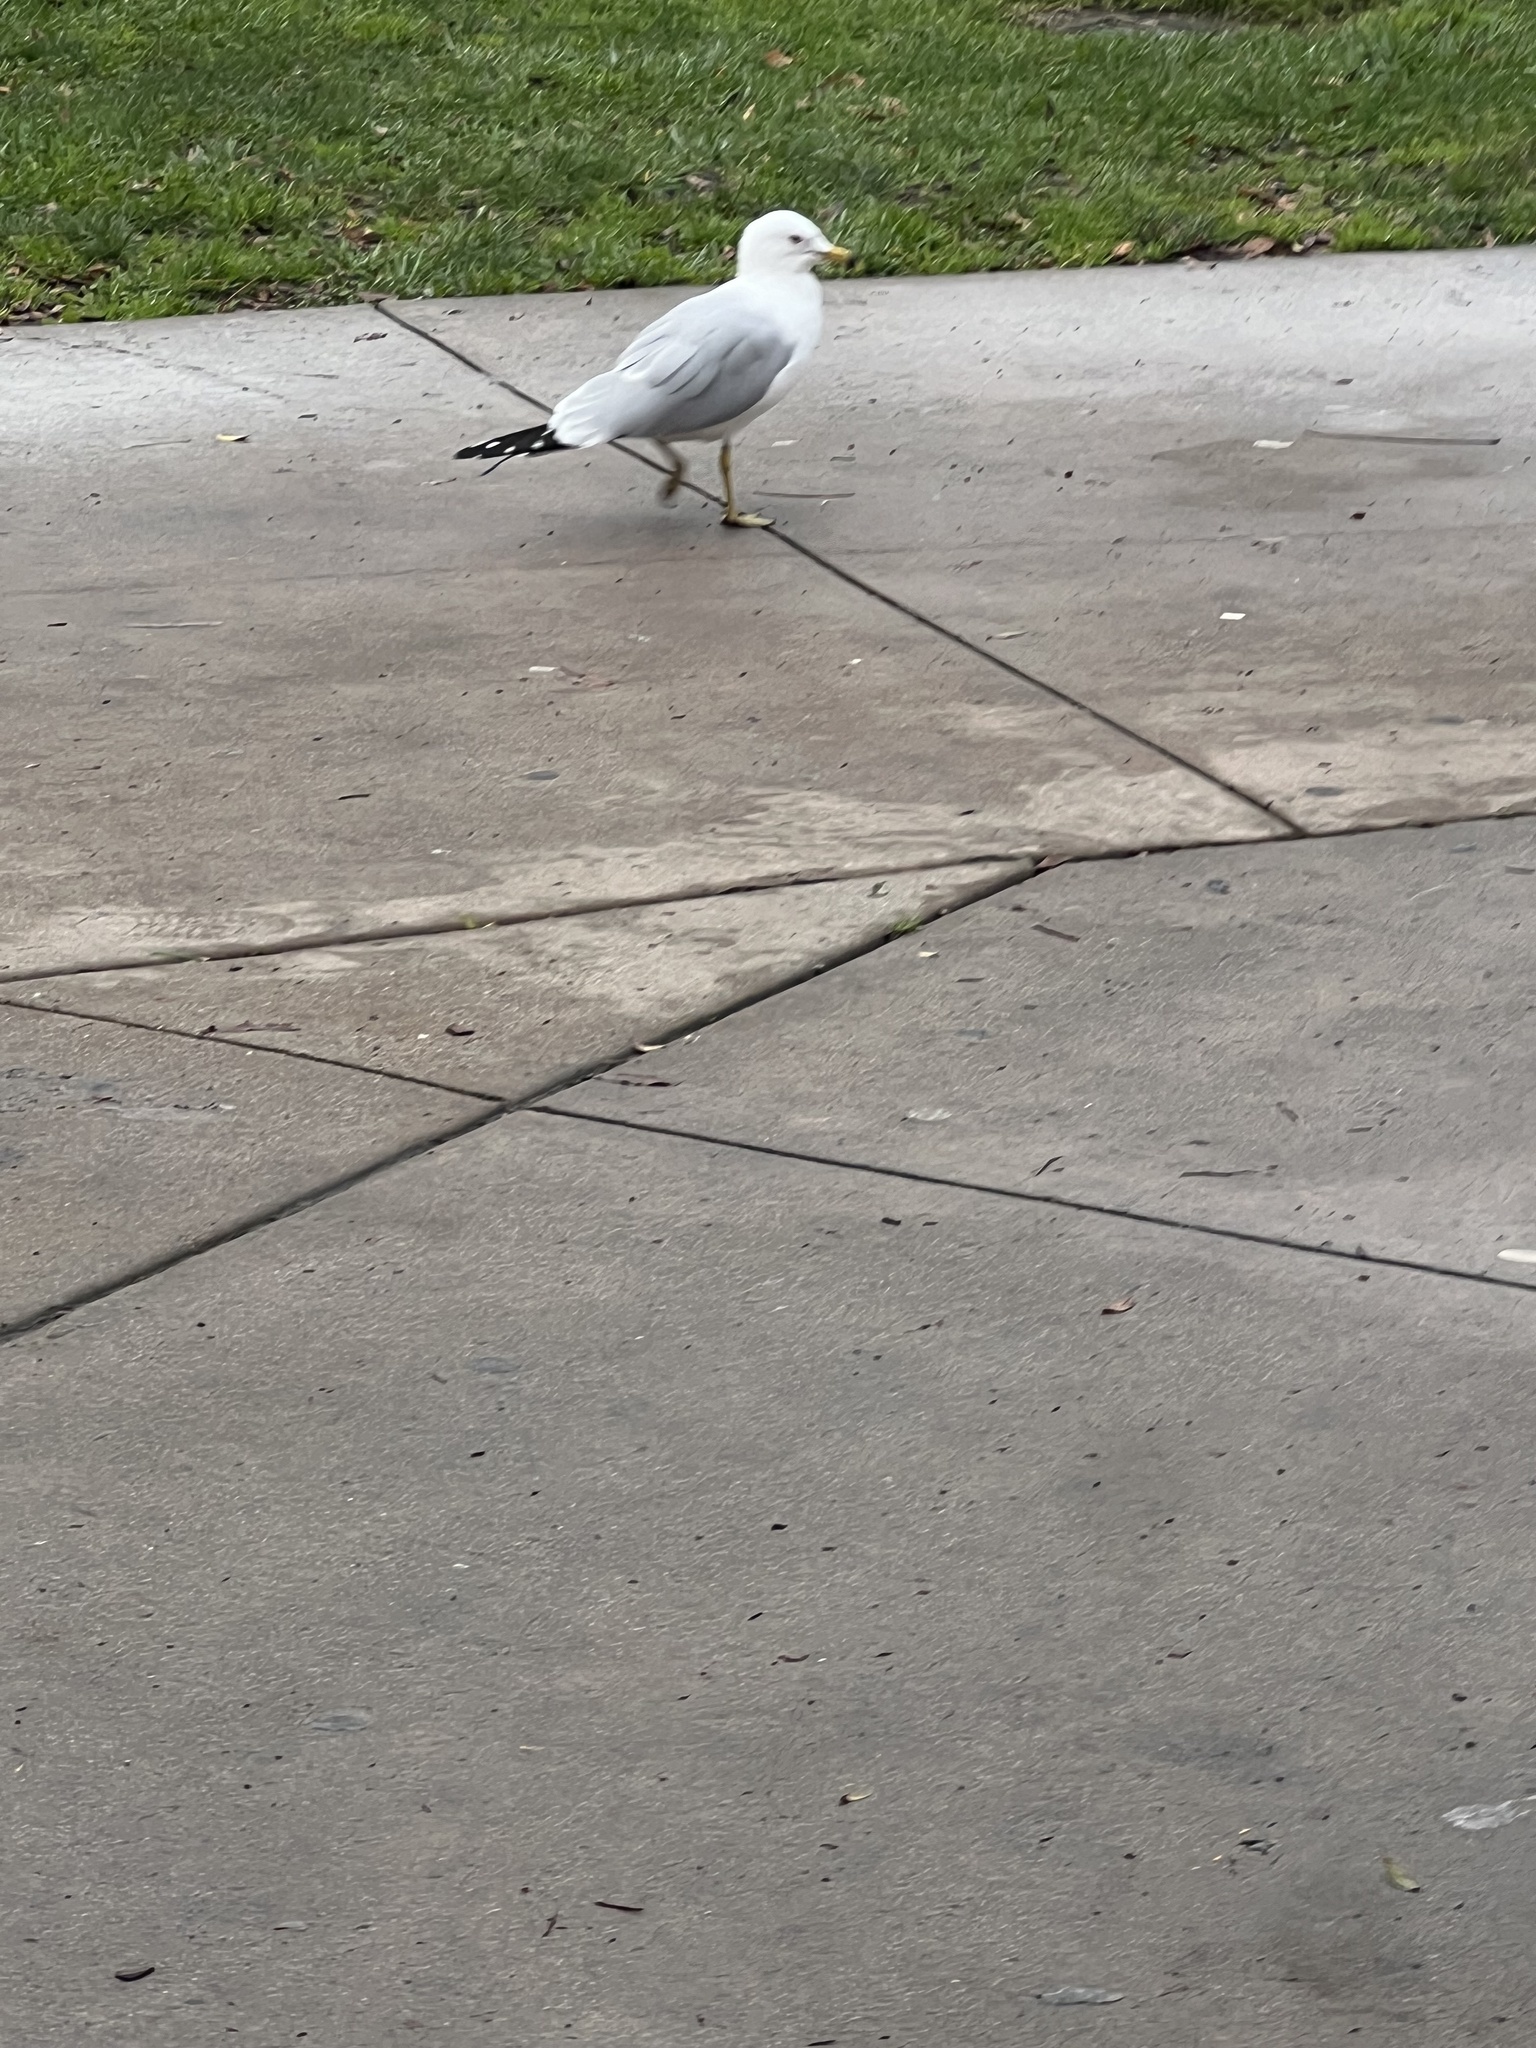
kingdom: Animalia
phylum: Chordata
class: Aves
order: Charadriiformes
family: Laridae
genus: Larus
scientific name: Larus delawarensis
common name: Ring-billed gull
